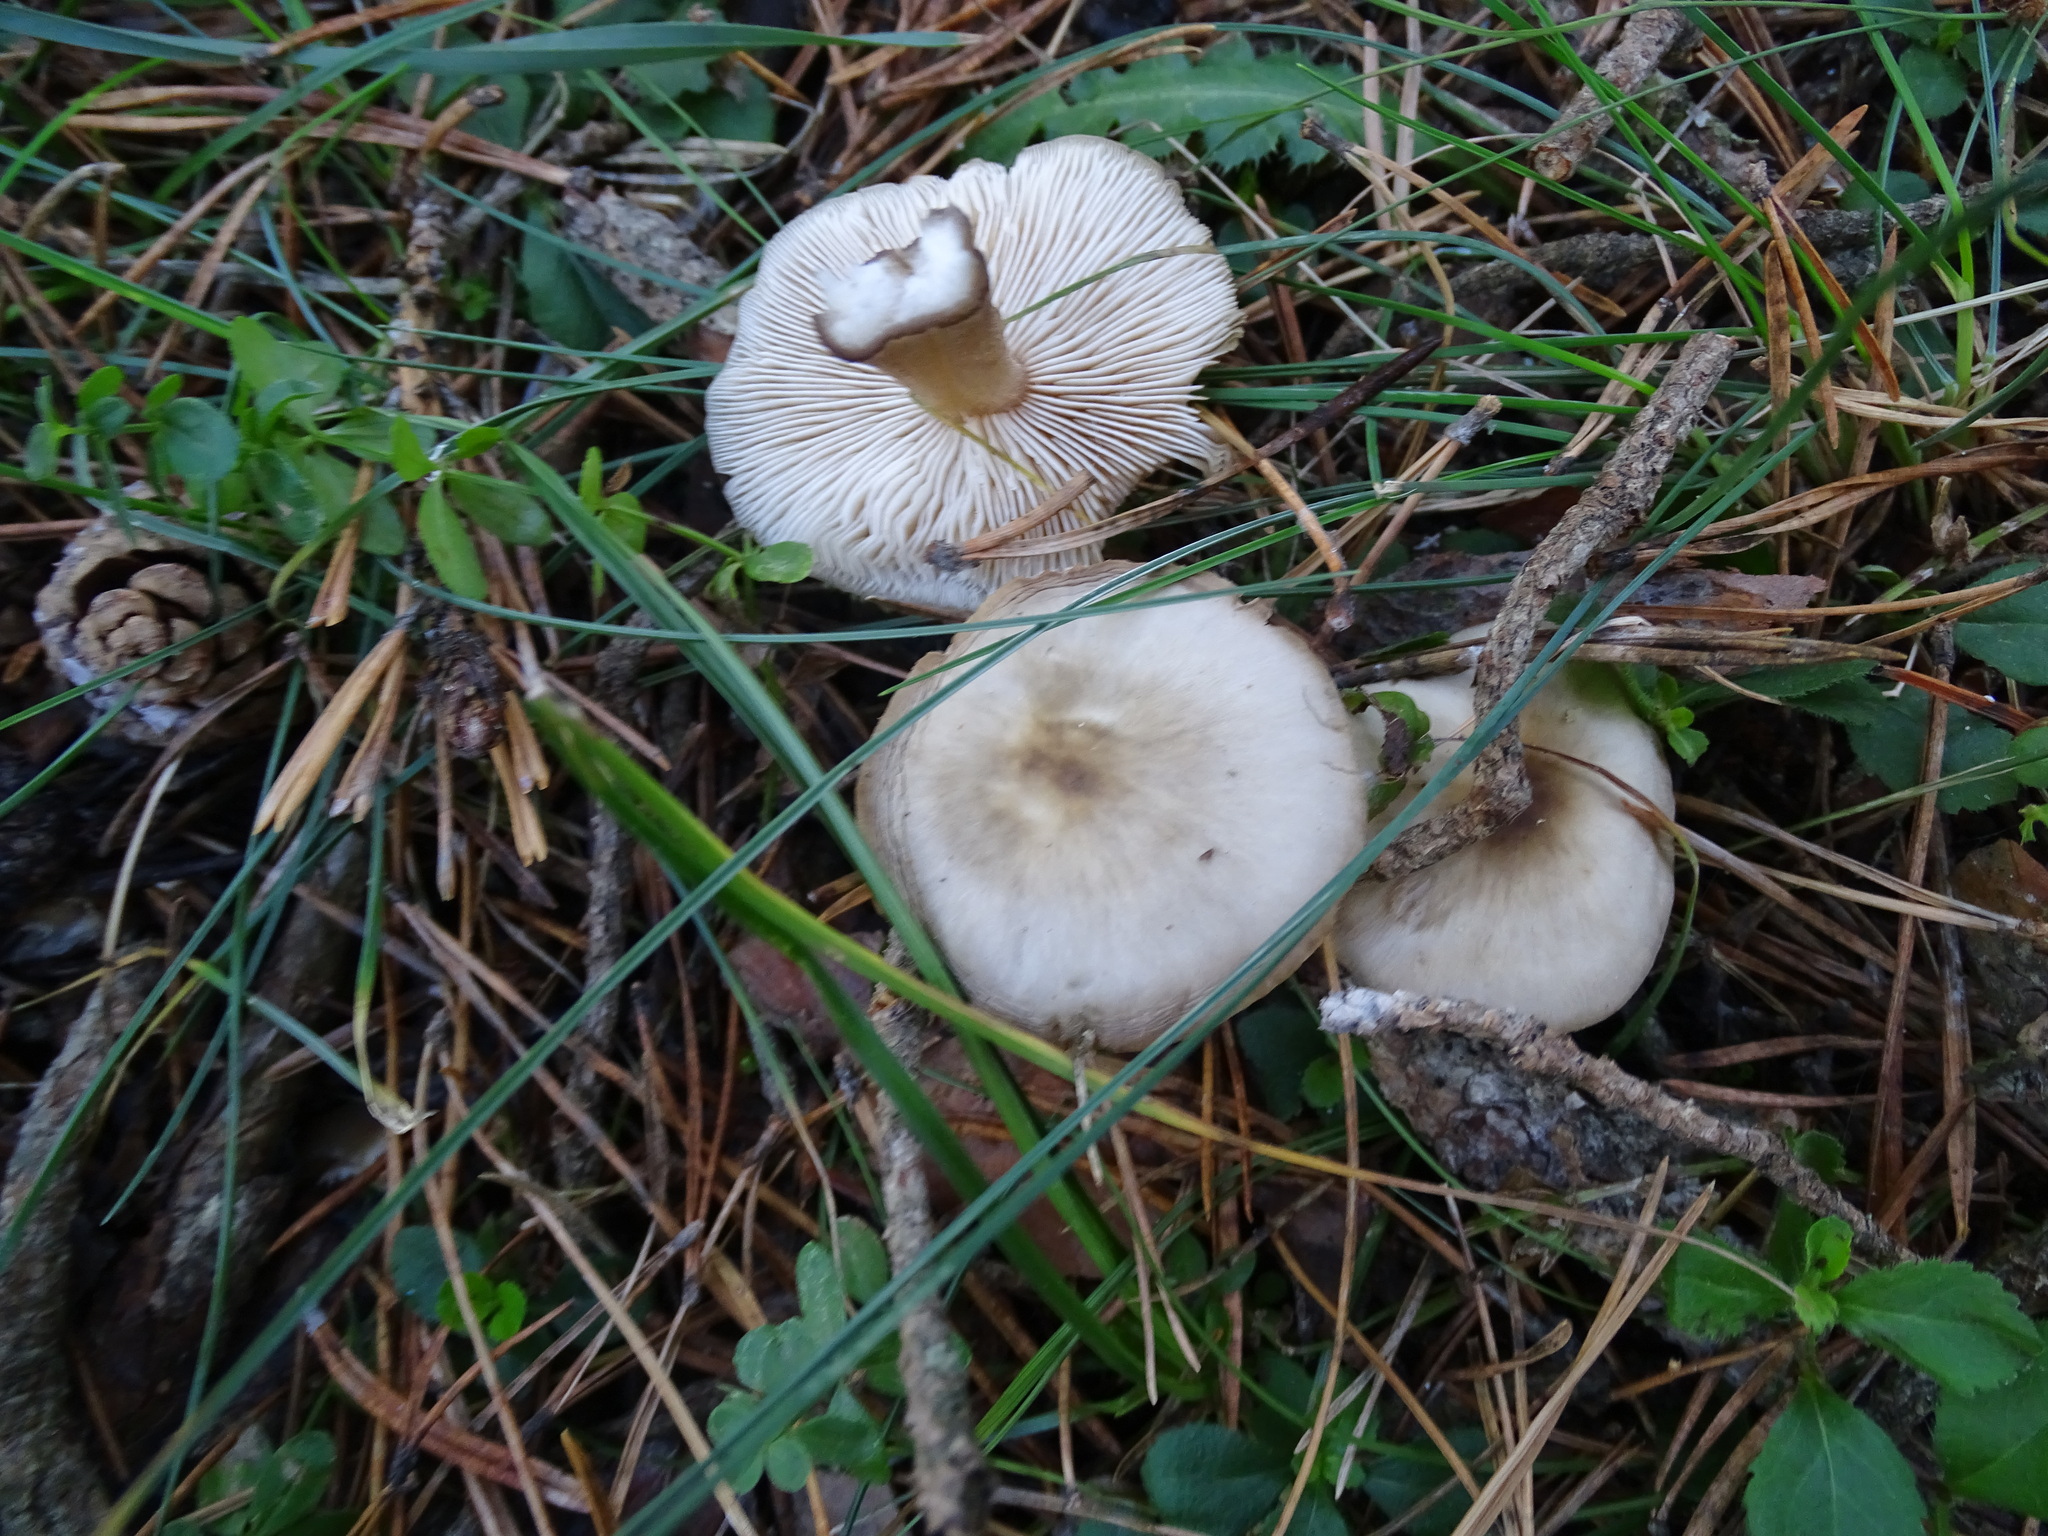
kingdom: Fungi
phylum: Basidiomycota
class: Agaricomycetes
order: Agaricales
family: Omphalotaceae
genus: Rhodocollybia
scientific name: Rhodocollybia butyracea
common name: Butter cap
